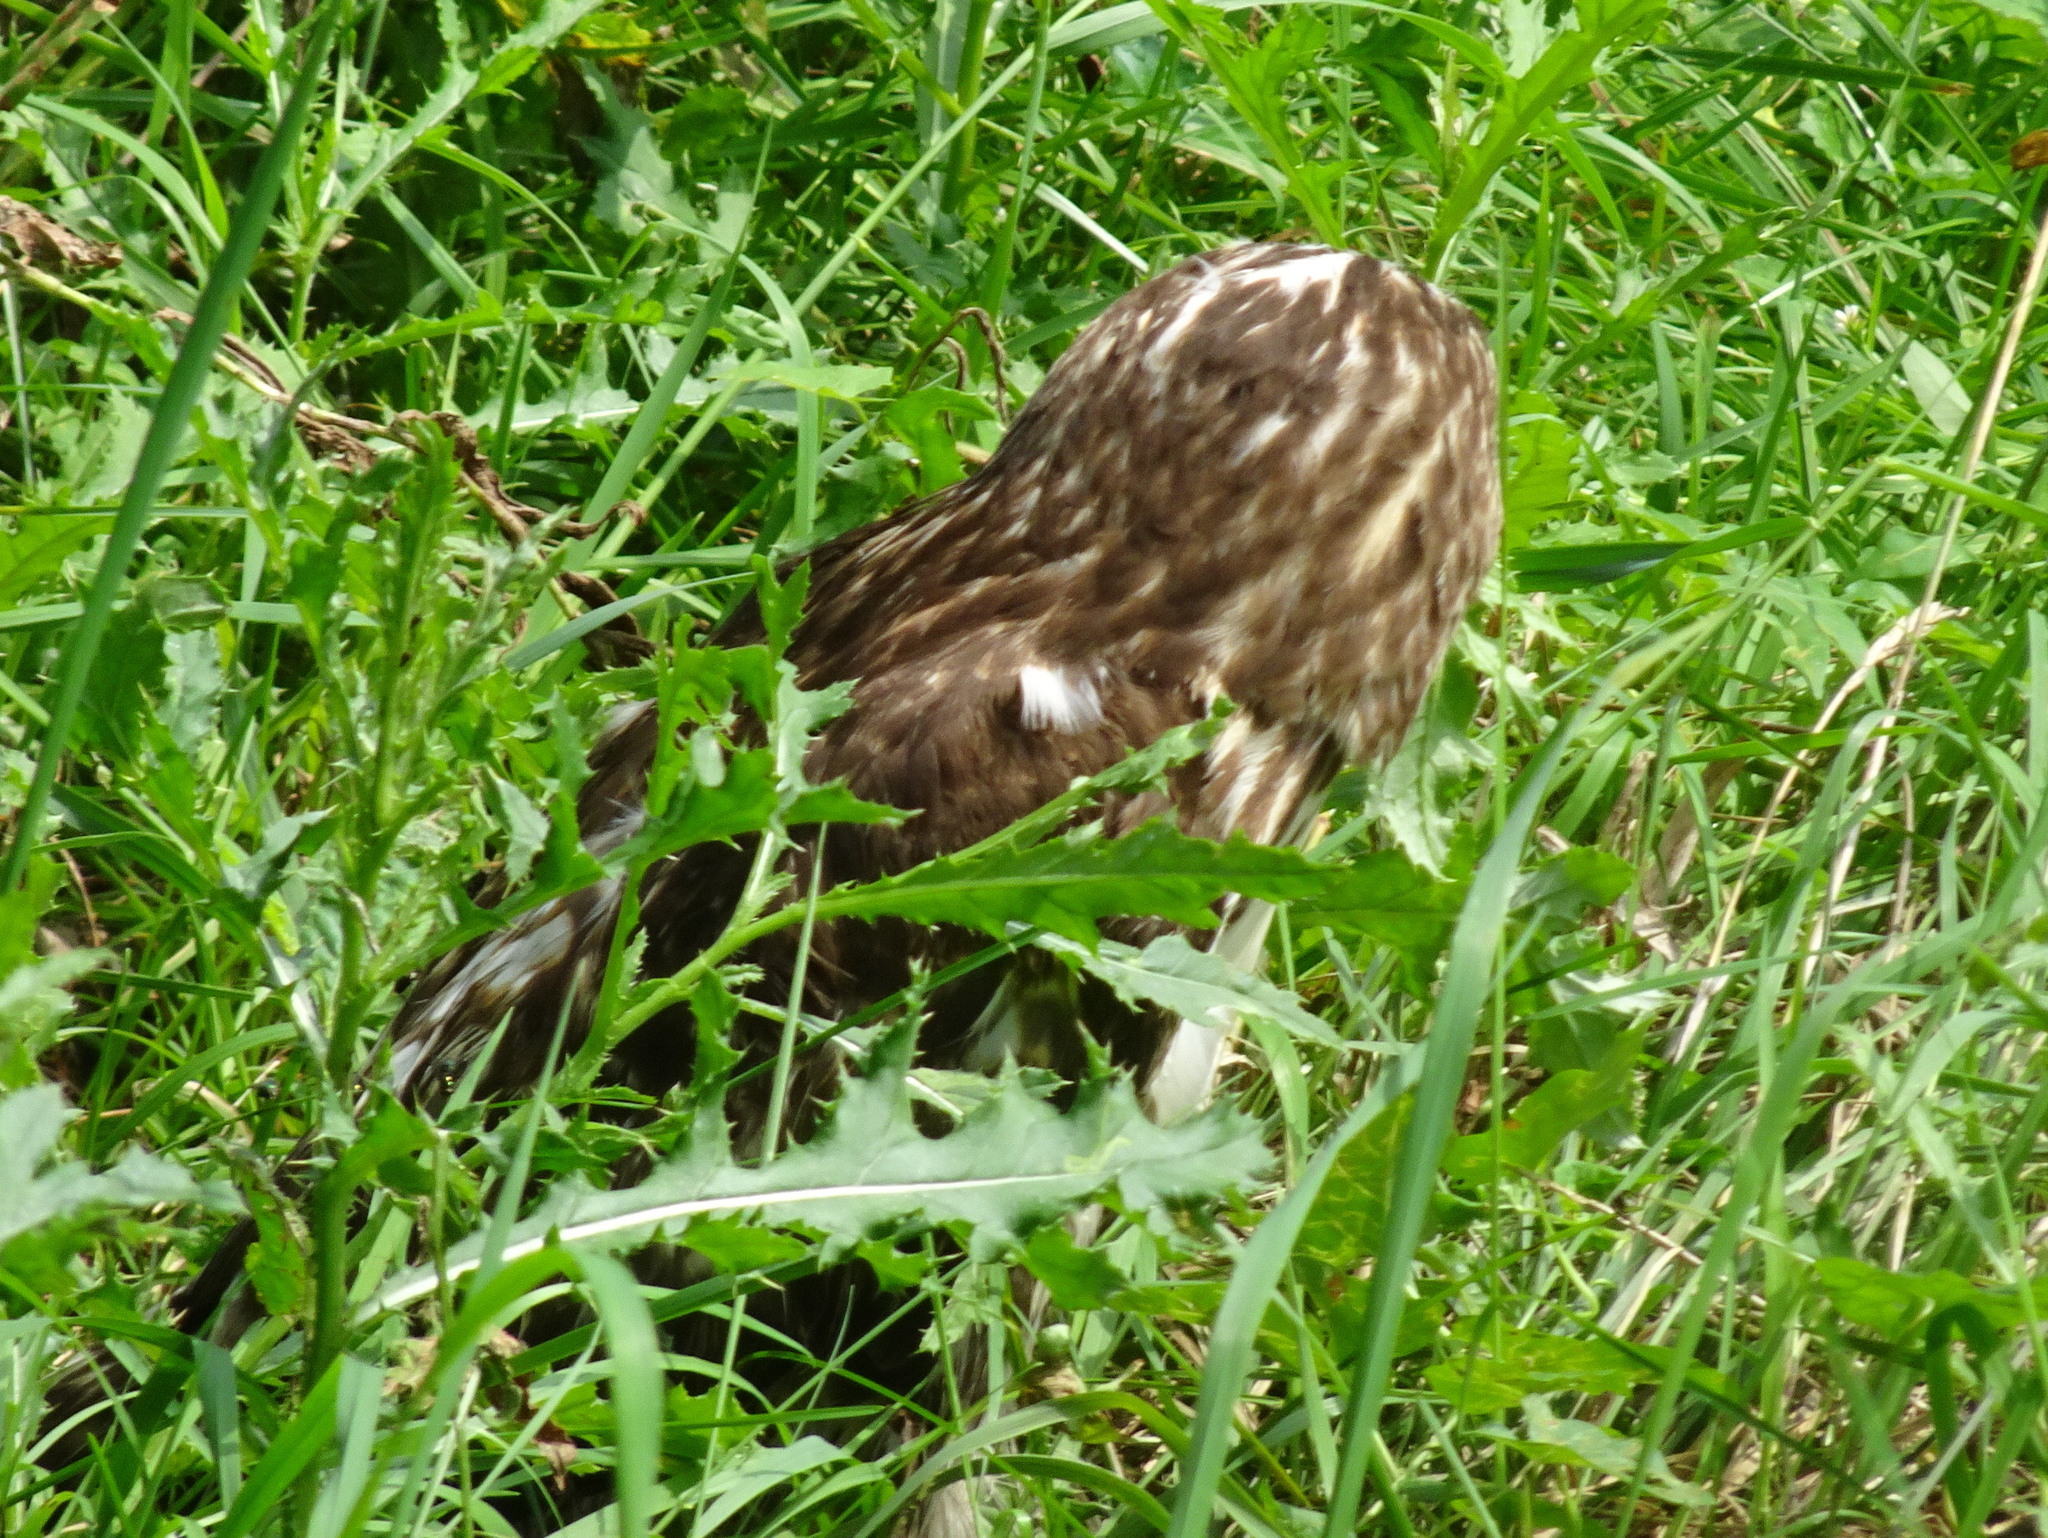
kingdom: Animalia
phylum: Chordata
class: Aves
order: Accipitriformes
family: Accipitridae
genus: Buteo
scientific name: Buteo jamaicensis
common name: Red-tailed hawk
